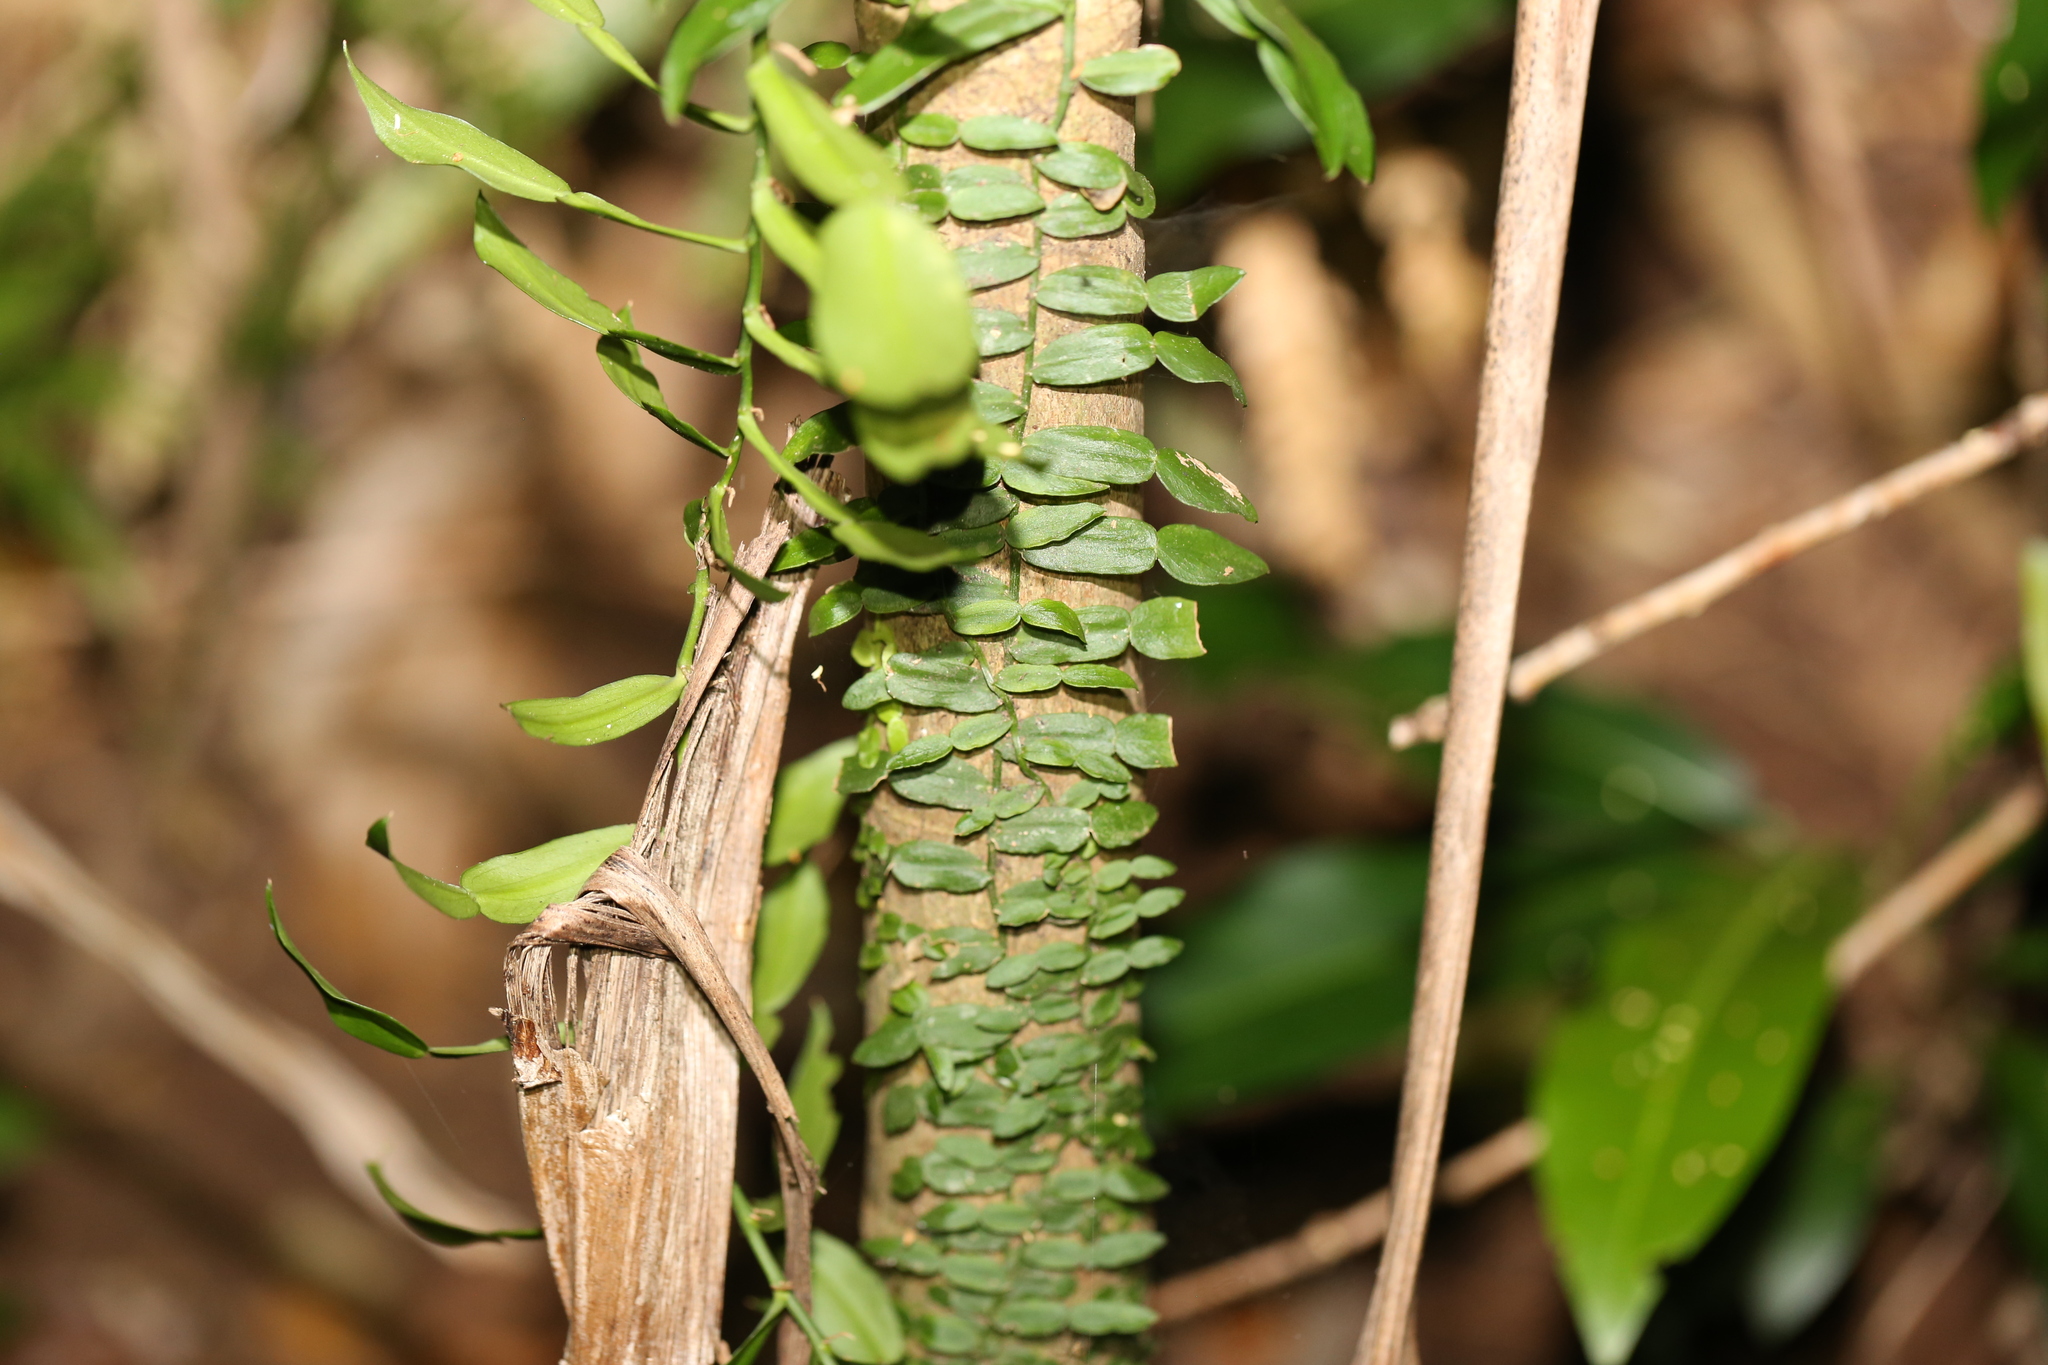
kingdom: Plantae
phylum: Tracheophyta
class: Liliopsida
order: Alismatales
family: Araceae
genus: Pothos
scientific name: Pothos longipes
